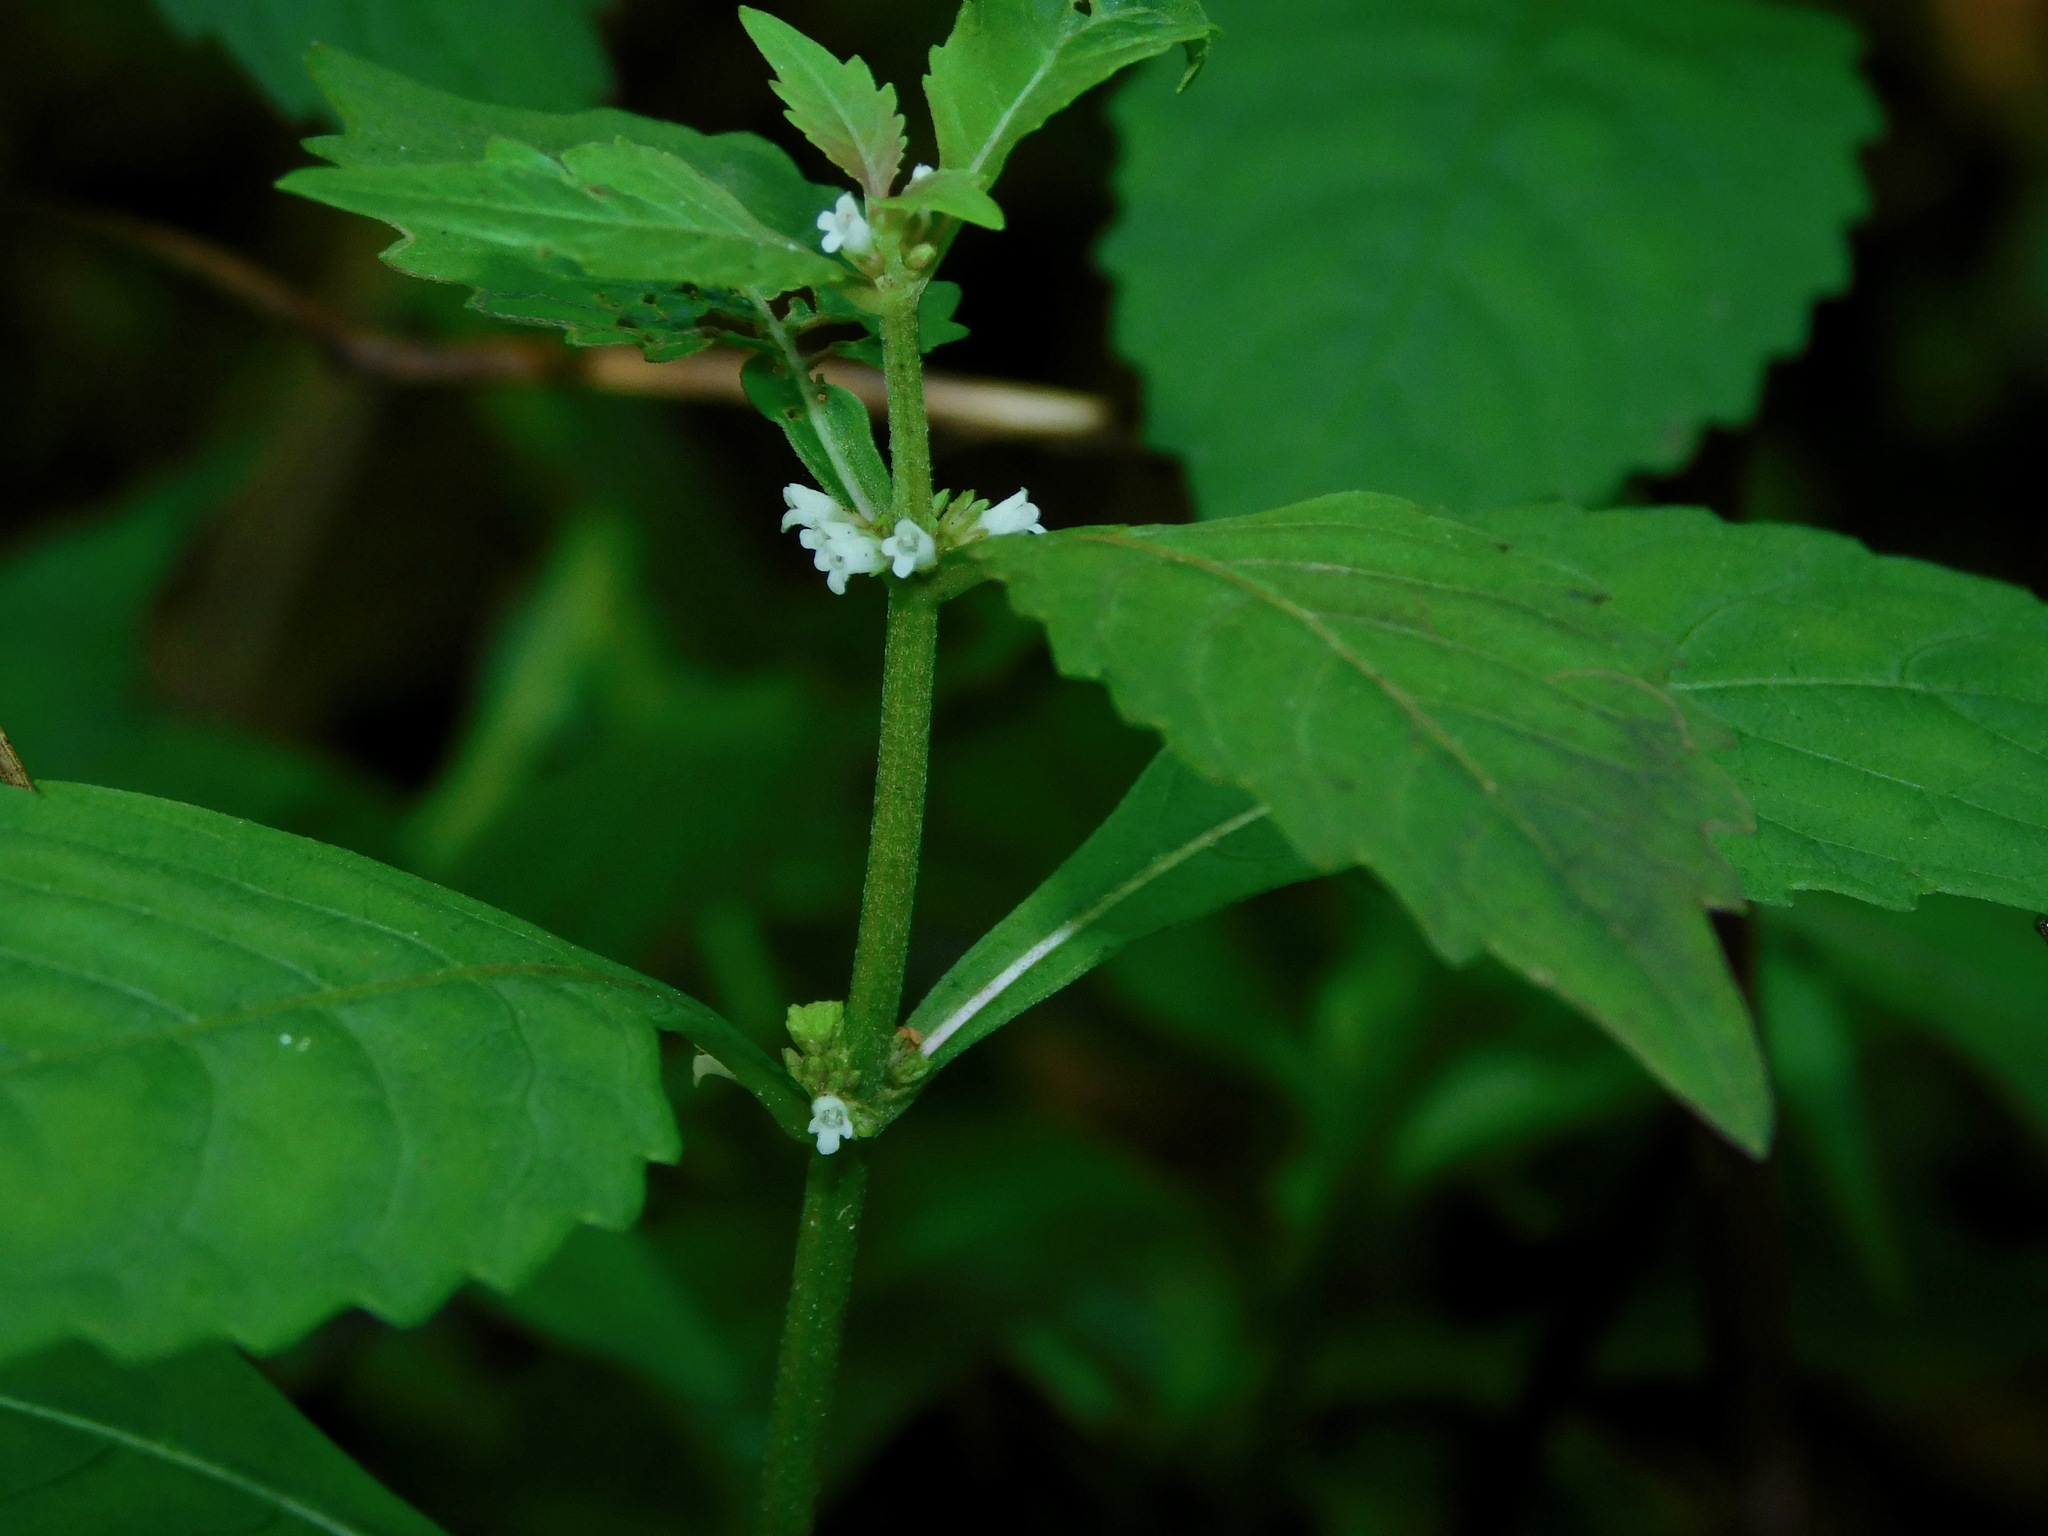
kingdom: Plantae
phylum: Tracheophyta
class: Magnoliopsida
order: Lamiales
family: Lamiaceae
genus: Lycopus
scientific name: Lycopus virginicus
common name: Bugleweed
